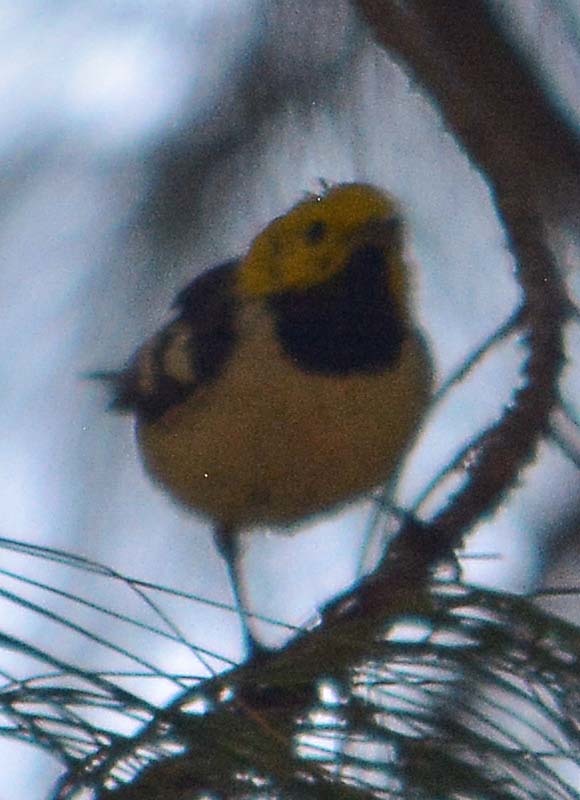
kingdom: Animalia
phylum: Chordata
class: Aves
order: Passeriformes
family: Parulidae
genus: Setophaga
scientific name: Setophaga occidentalis
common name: Hermit warbler
